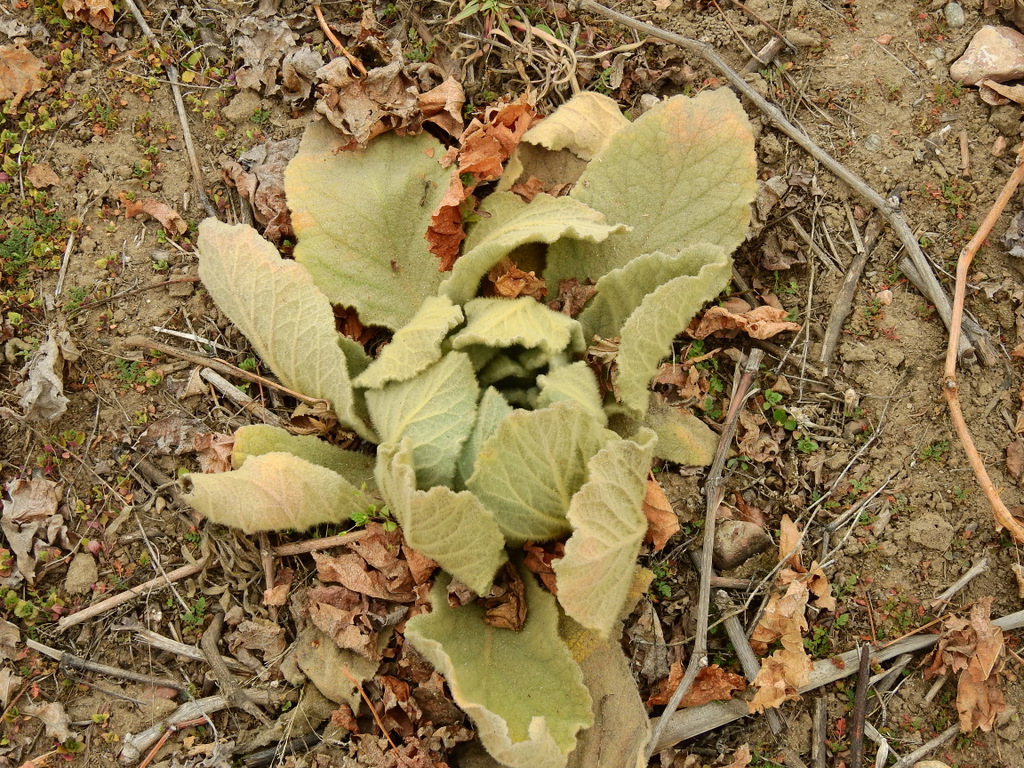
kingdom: Plantae
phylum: Tracheophyta
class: Magnoliopsida
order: Lamiales
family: Scrophulariaceae
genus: Verbascum
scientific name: Verbascum thapsus
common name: Common mullein
